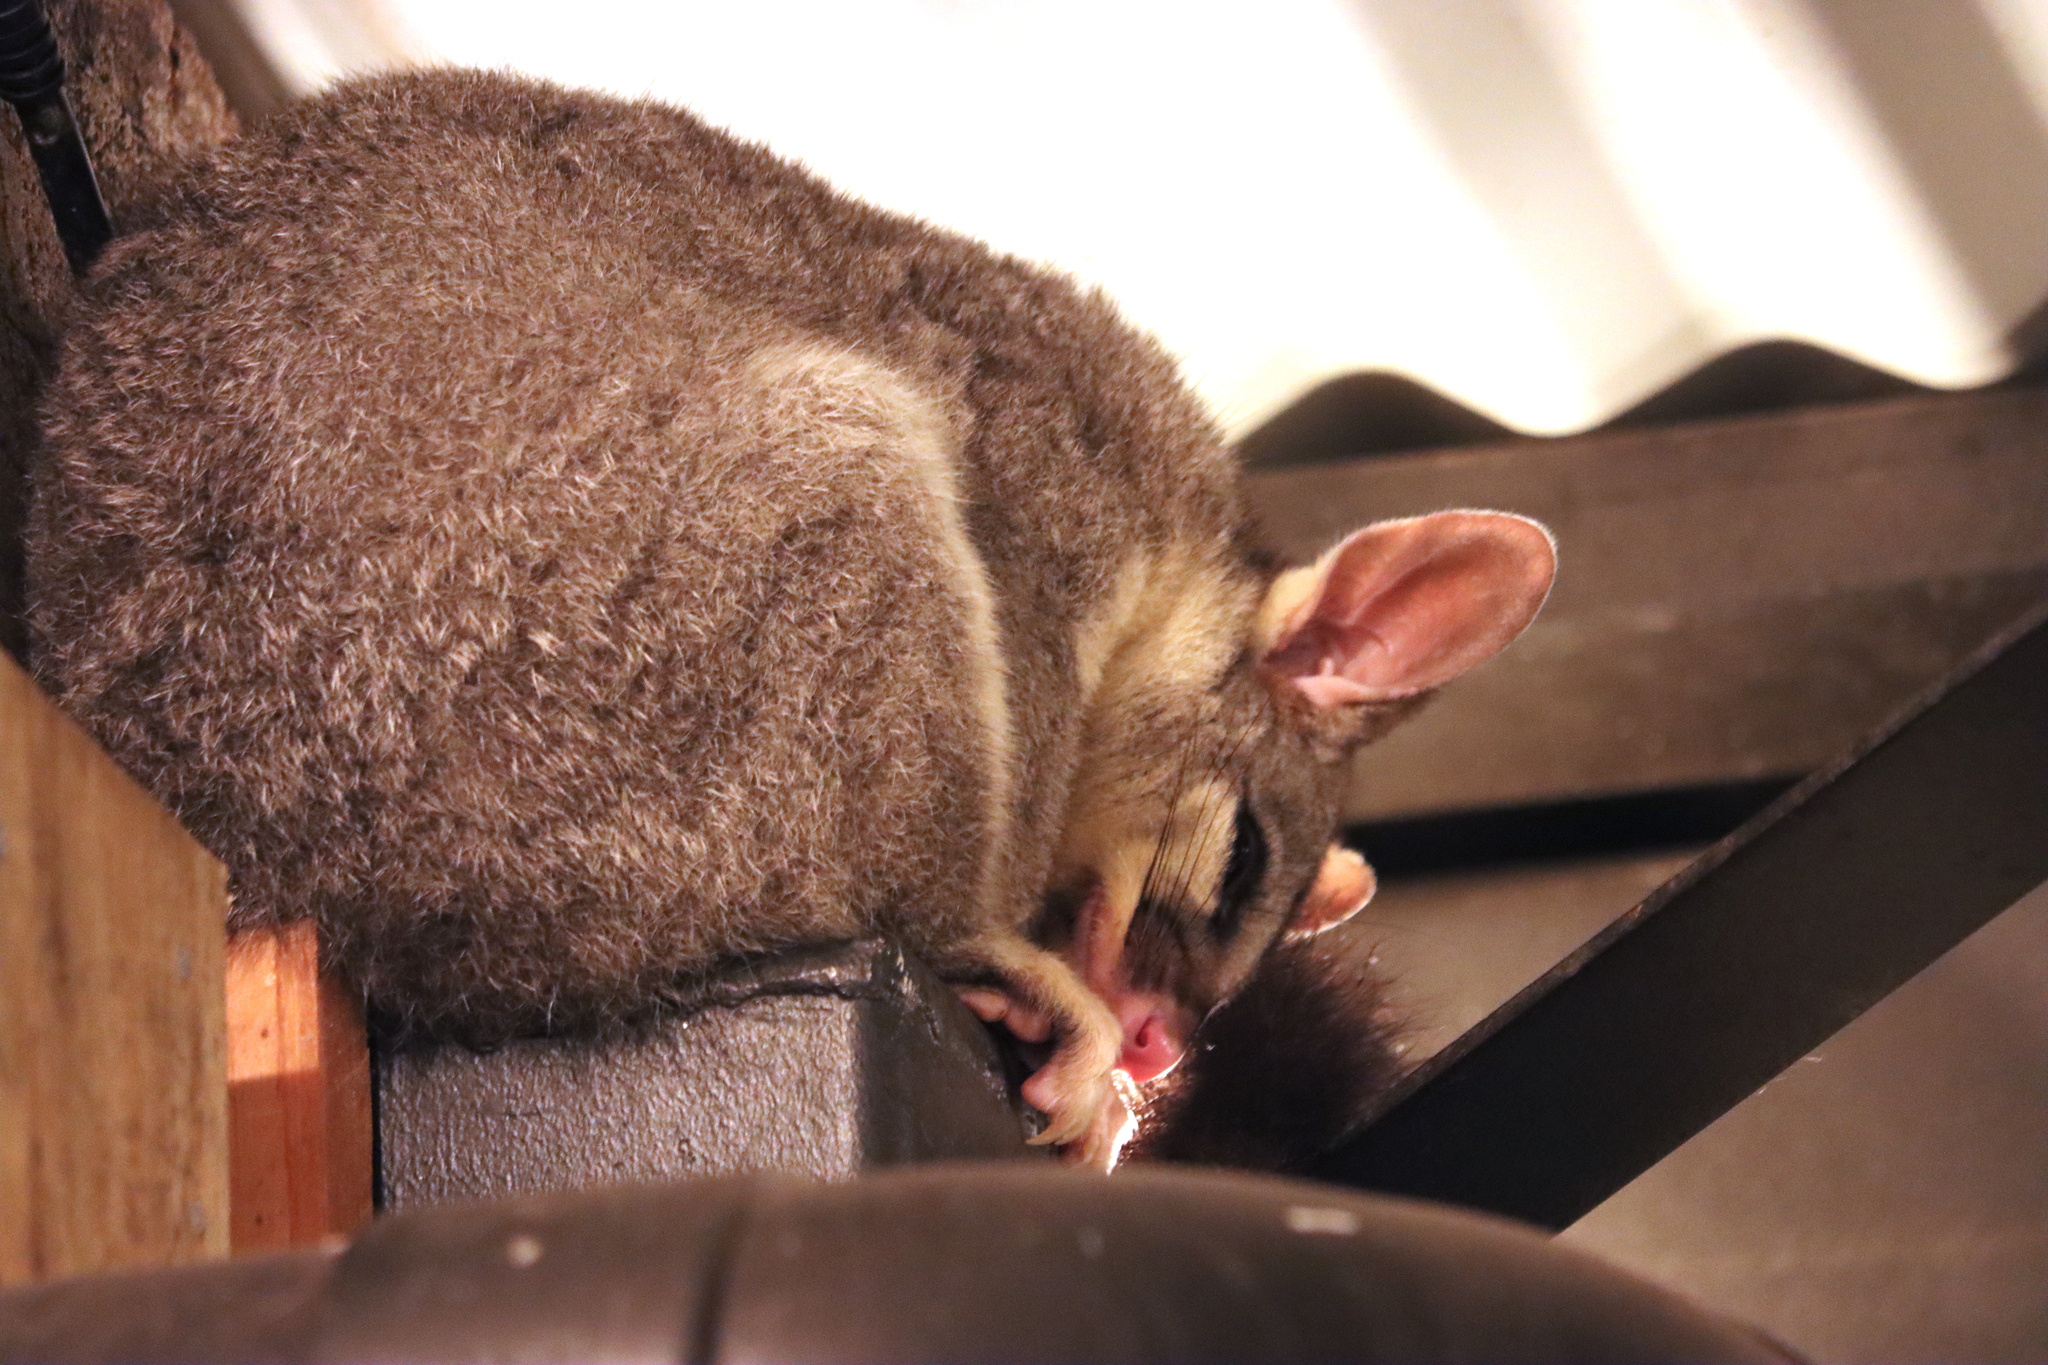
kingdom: Animalia
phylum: Chordata
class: Mammalia
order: Diprotodontia
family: Phalangeridae
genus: Trichosurus
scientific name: Trichosurus vulpecula
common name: Common brushtail
